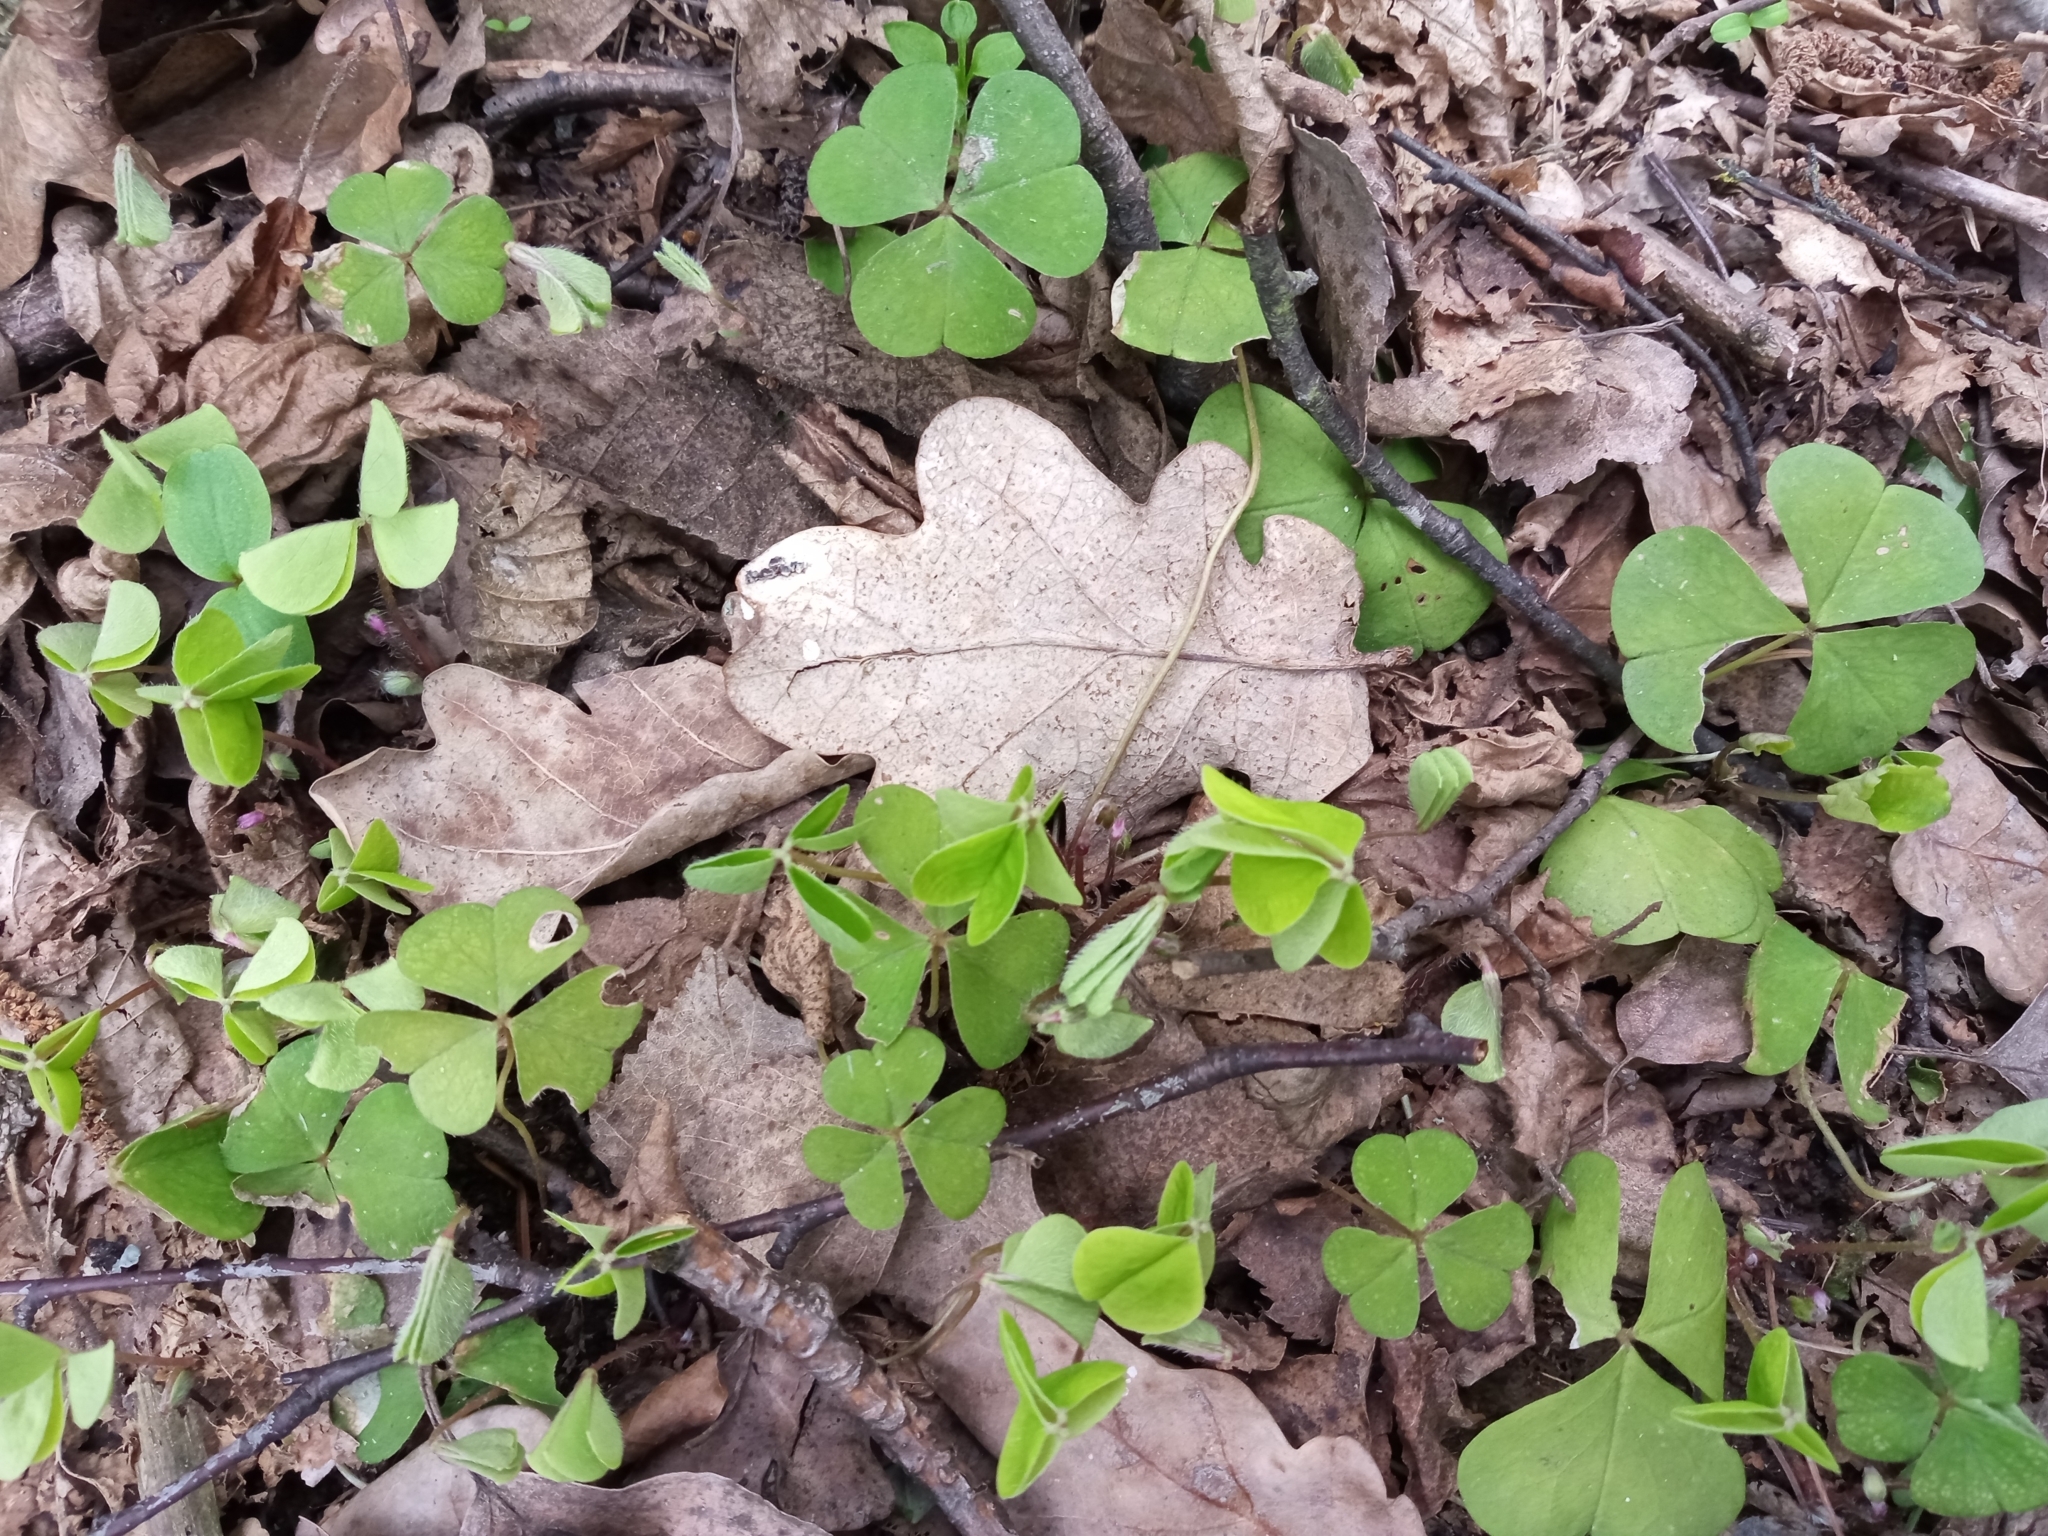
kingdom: Plantae
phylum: Tracheophyta
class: Magnoliopsida
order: Oxalidales
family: Oxalidaceae
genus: Oxalis
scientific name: Oxalis acetosella
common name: Wood-sorrel
